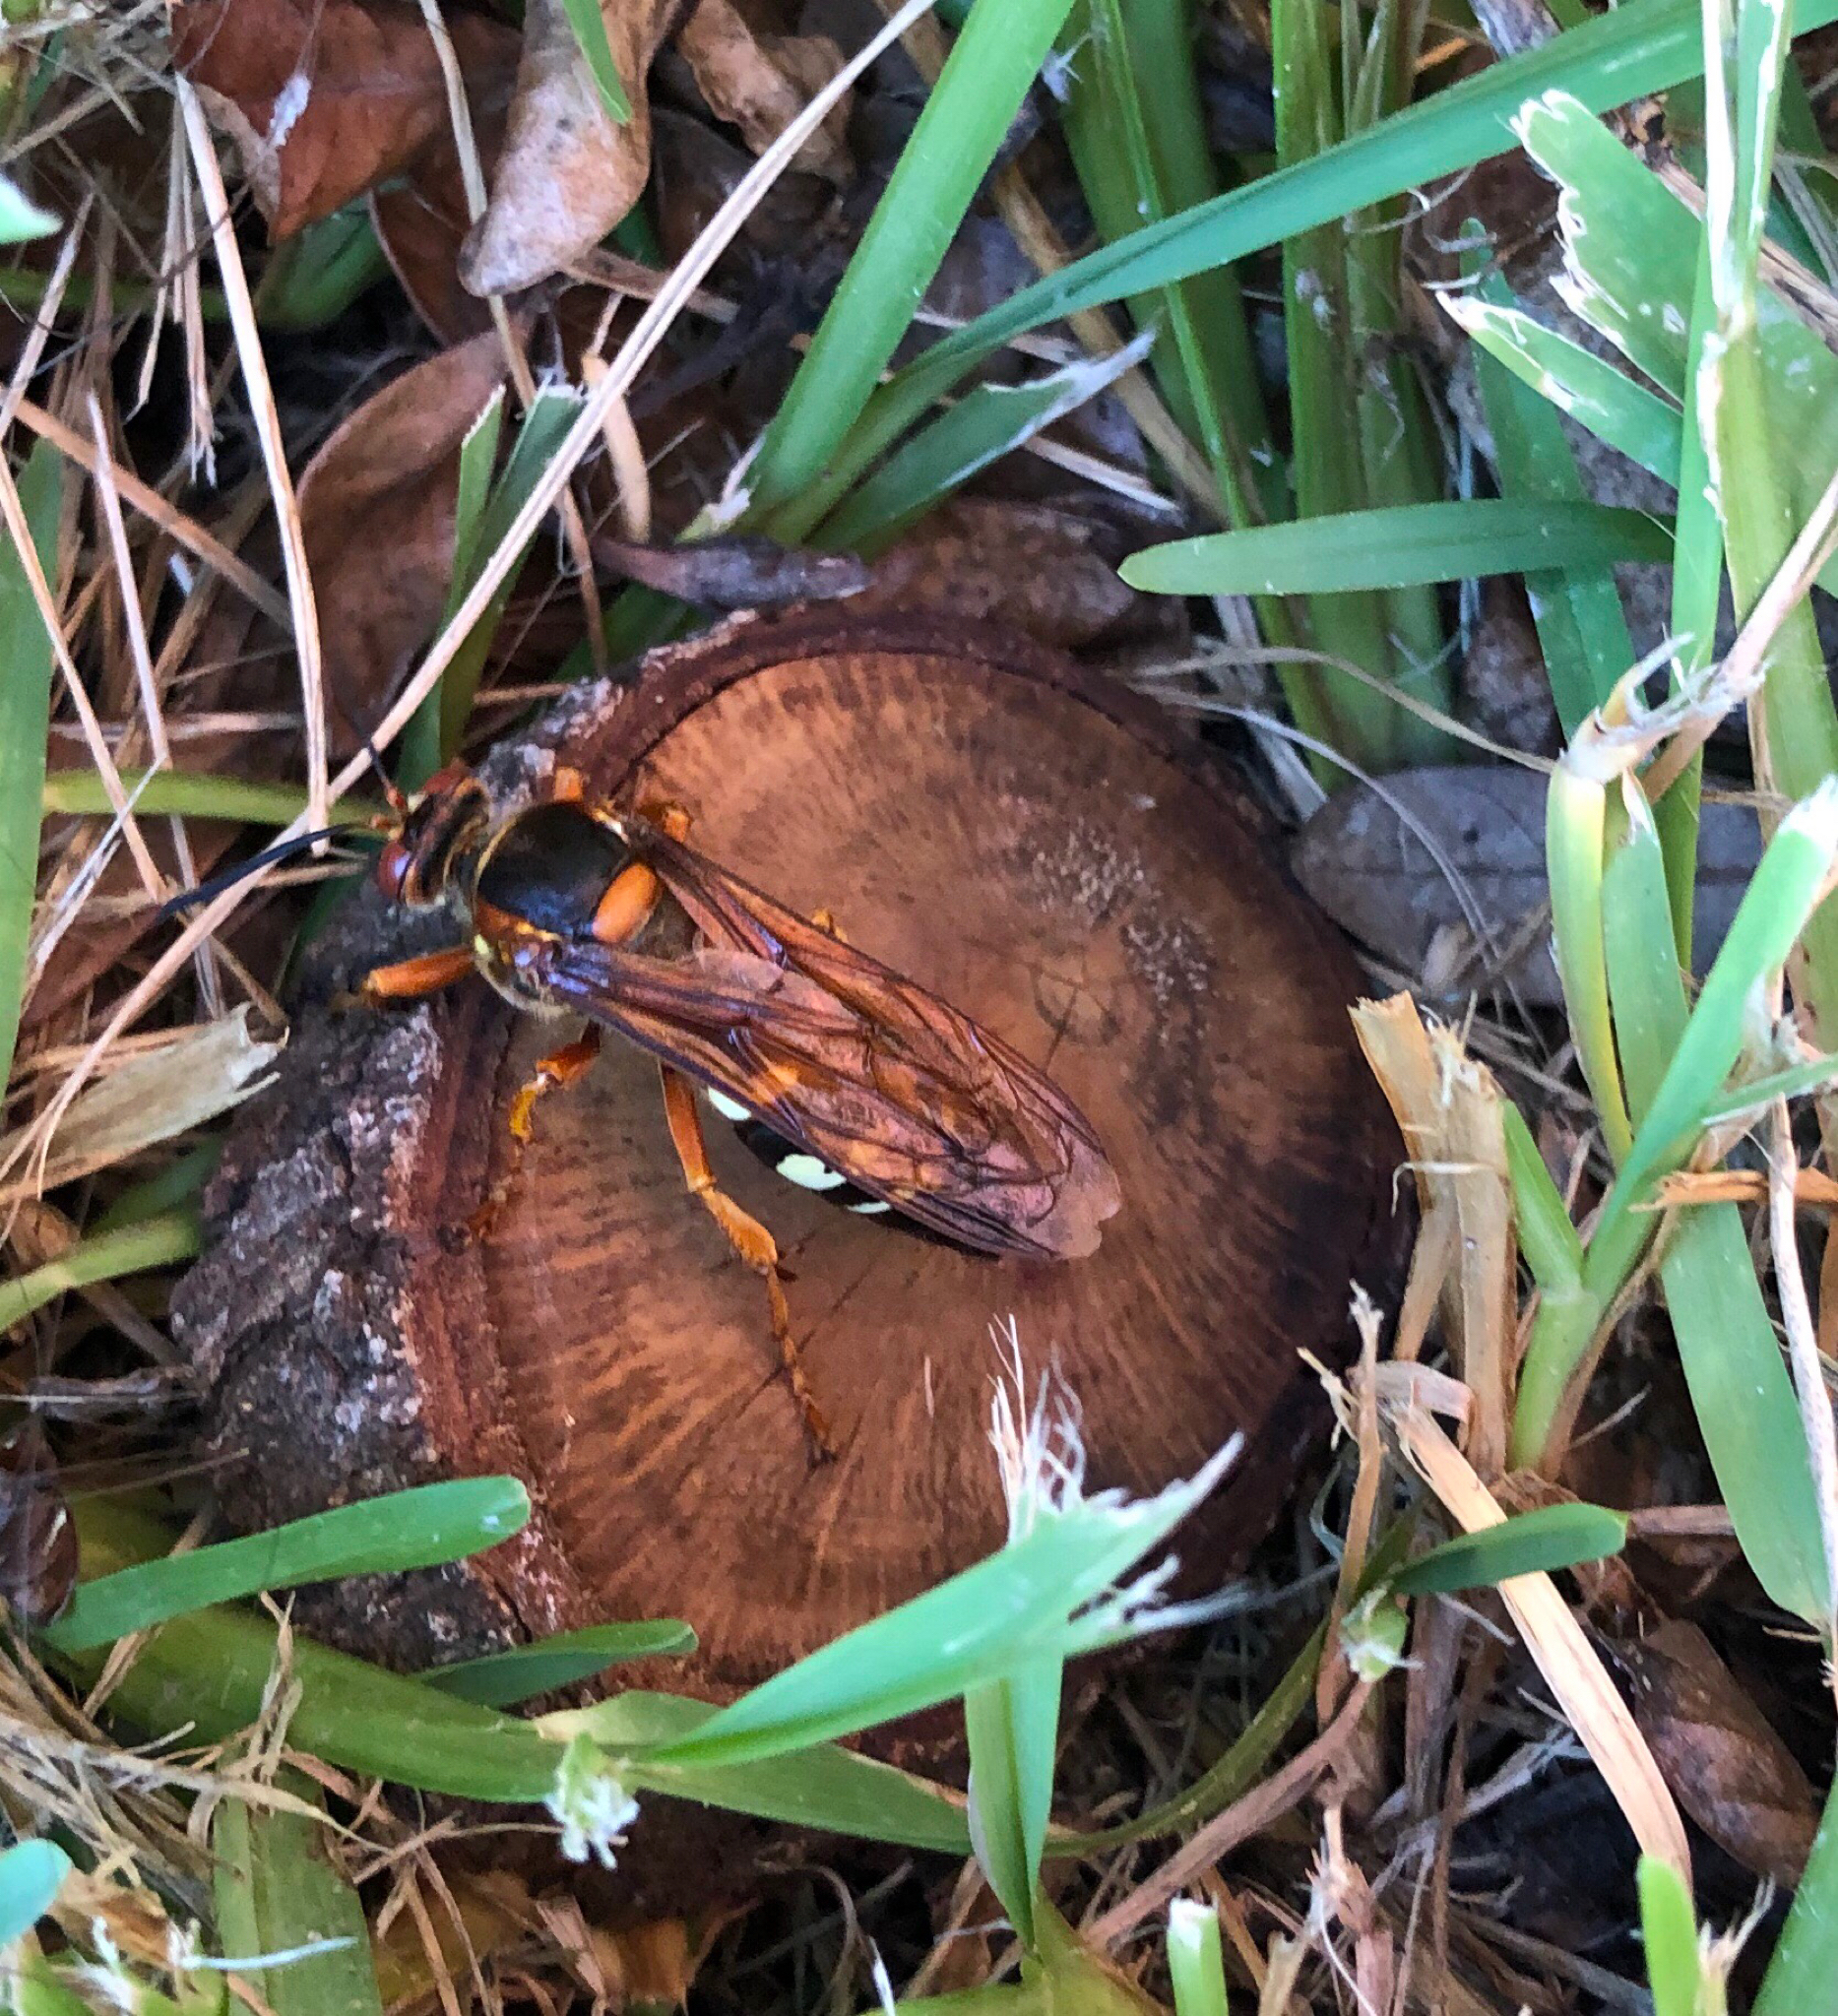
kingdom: Animalia
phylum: Arthropoda
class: Insecta
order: Hymenoptera
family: Crabronidae
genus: Sphecius
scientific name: Sphecius speciosus
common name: Cicada killer
